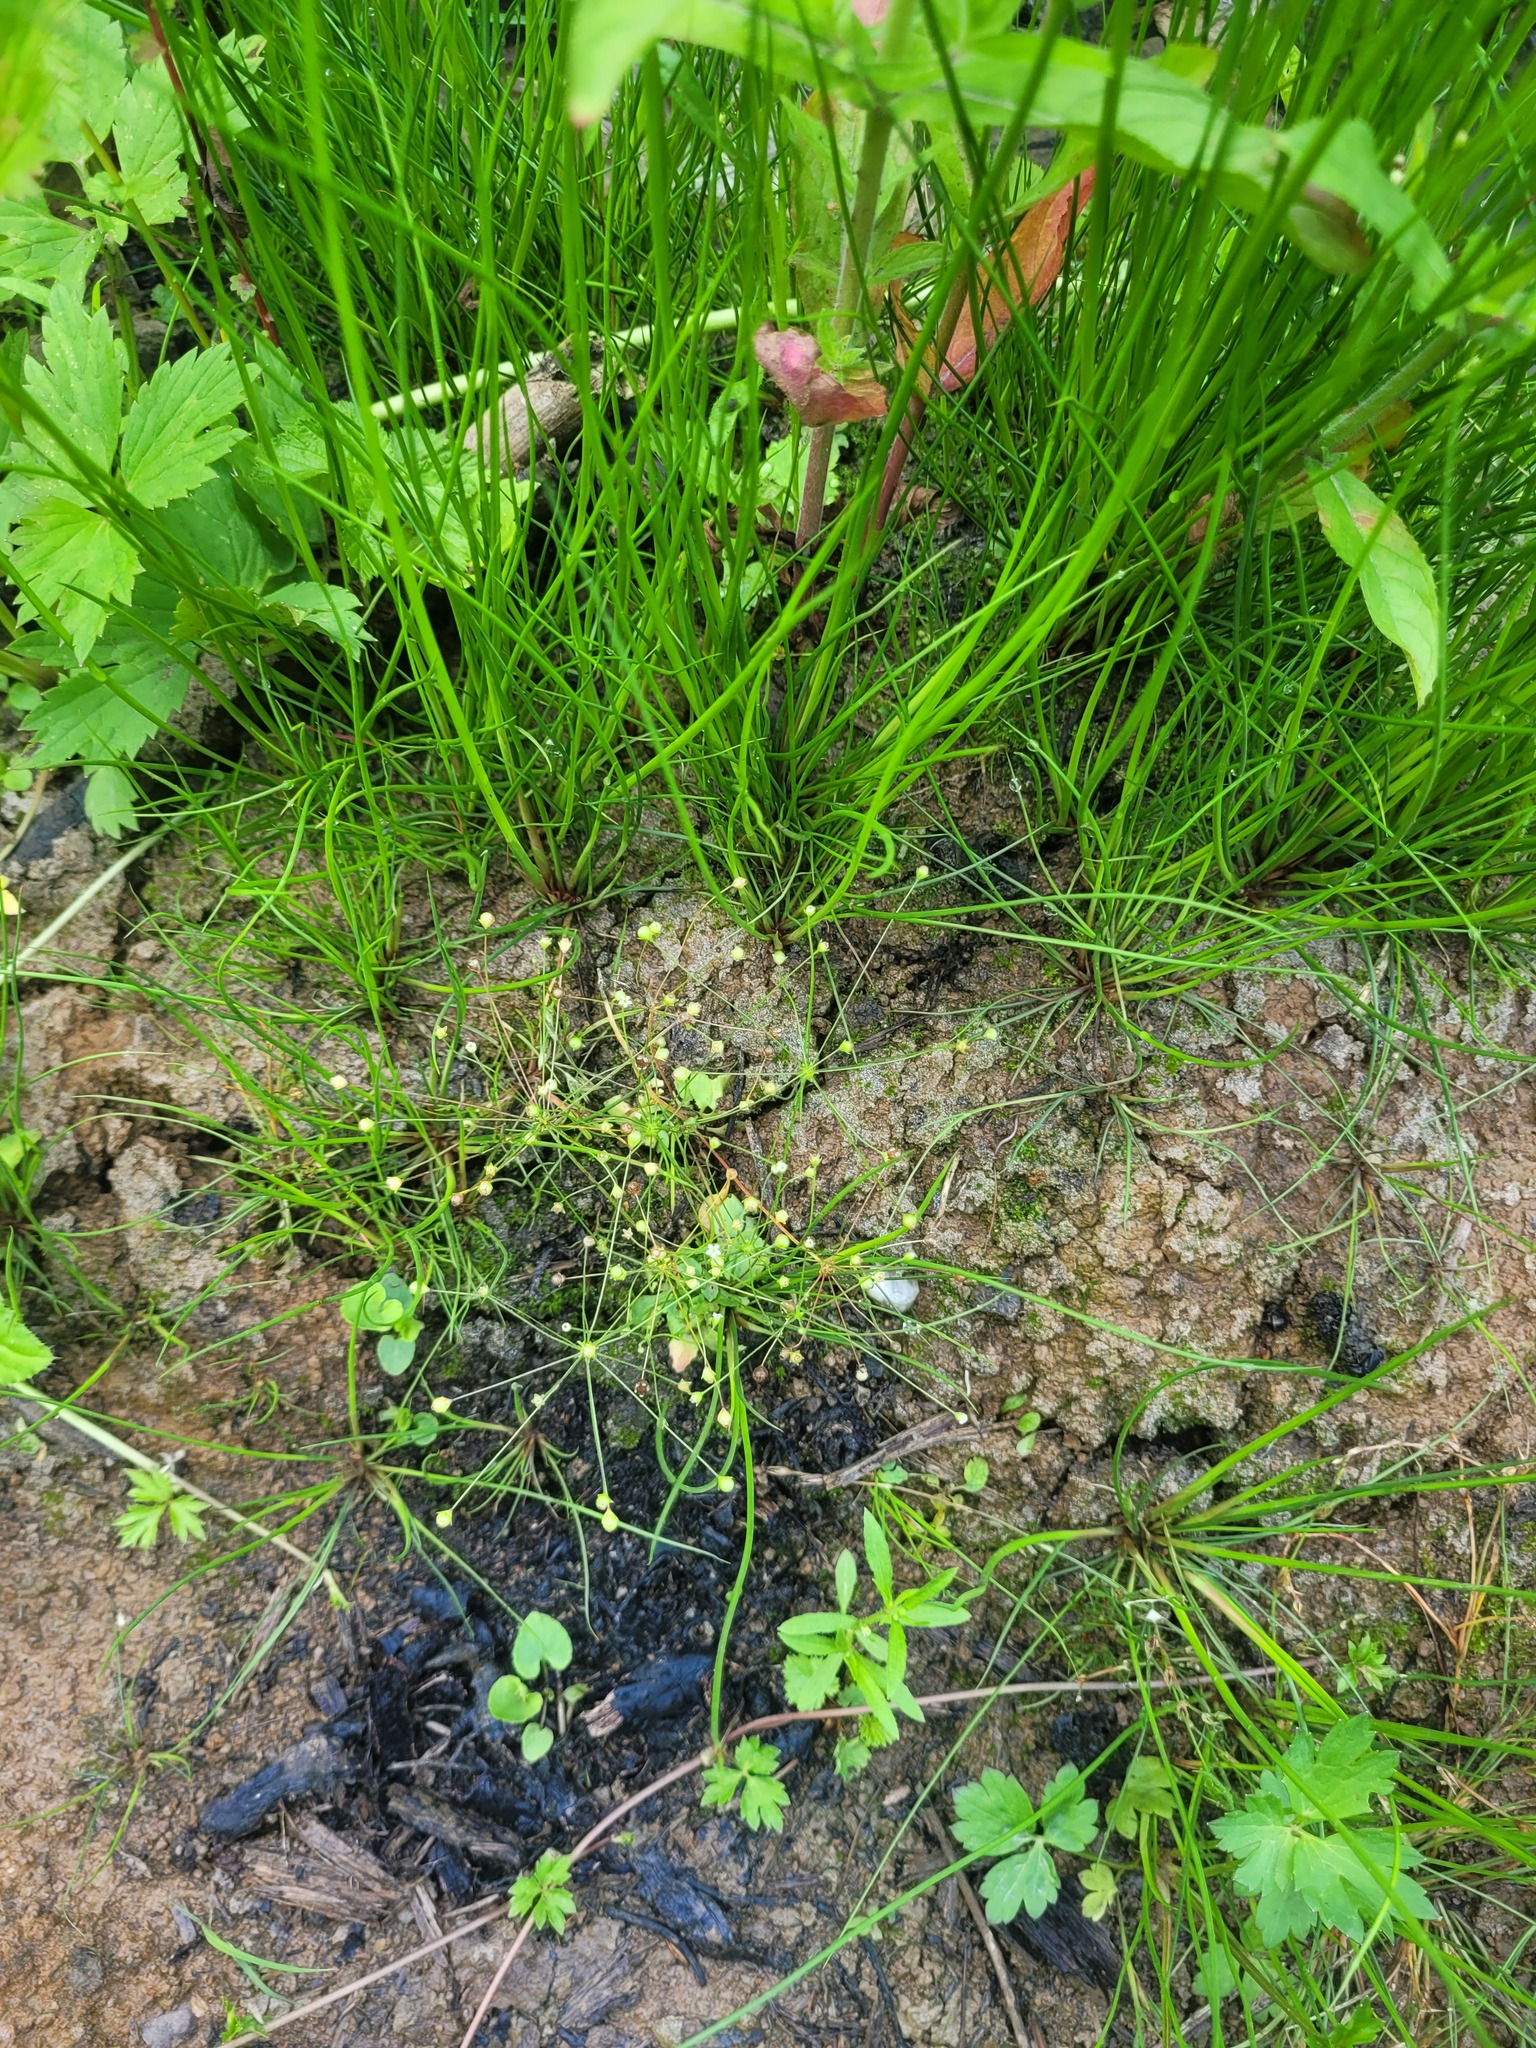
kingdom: Plantae
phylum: Tracheophyta
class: Magnoliopsida
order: Ericales
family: Primulaceae
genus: Androsace
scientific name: Androsace filiformis
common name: Filiform rock jasmine
